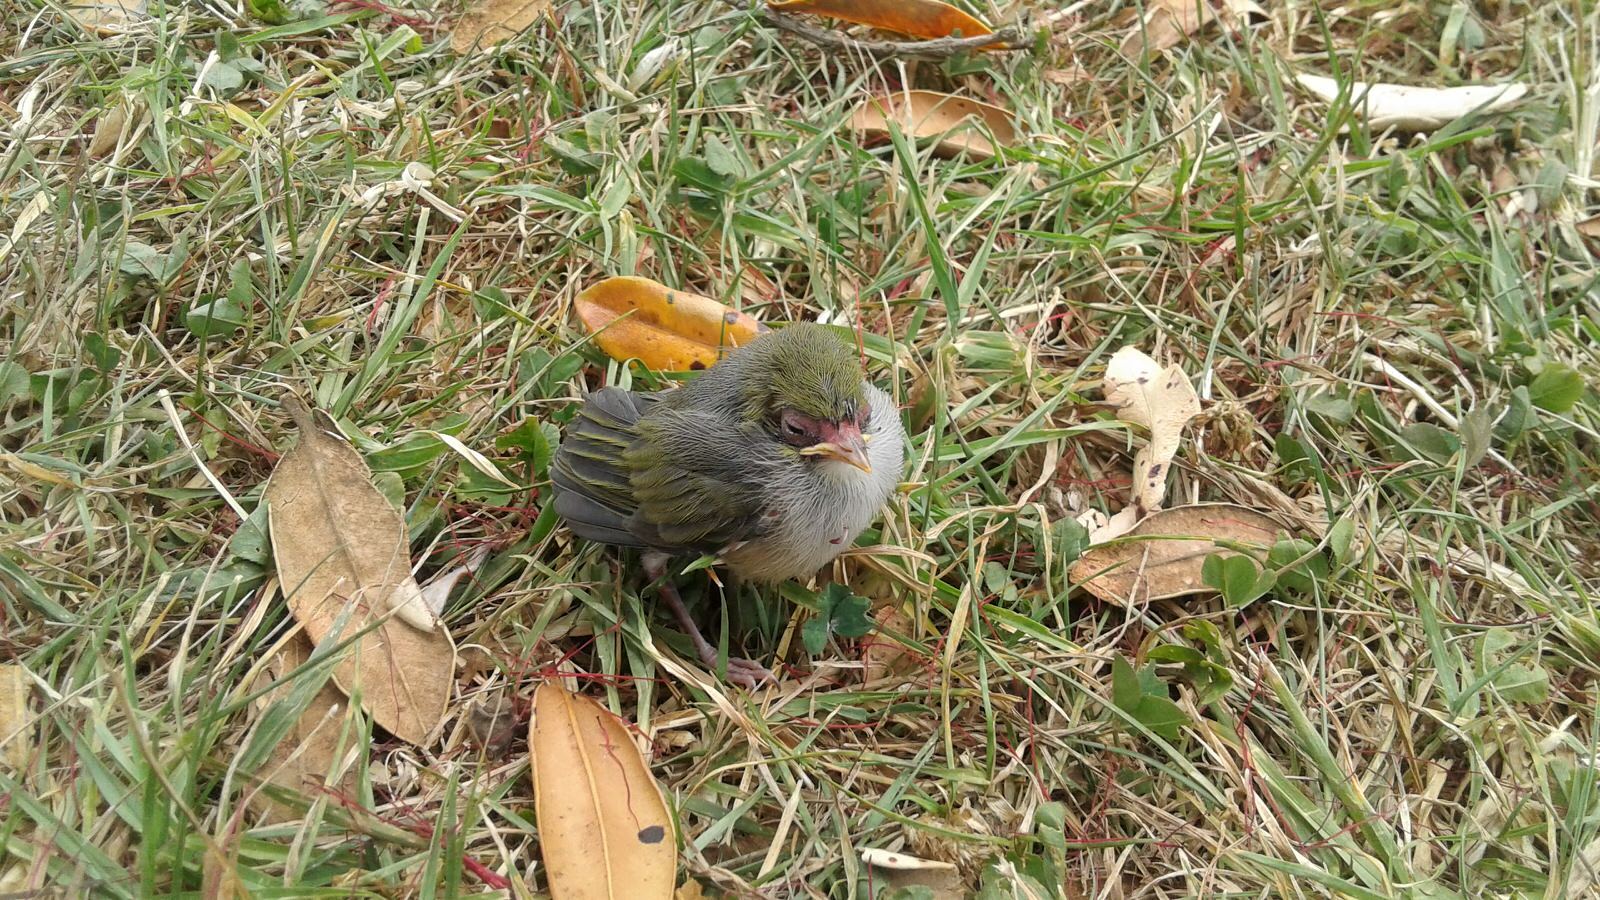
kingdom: Animalia
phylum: Chordata
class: Aves
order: Passeriformes
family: Zosteropidae
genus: Zosterops
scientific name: Zosterops lateralis
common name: Silvereye
